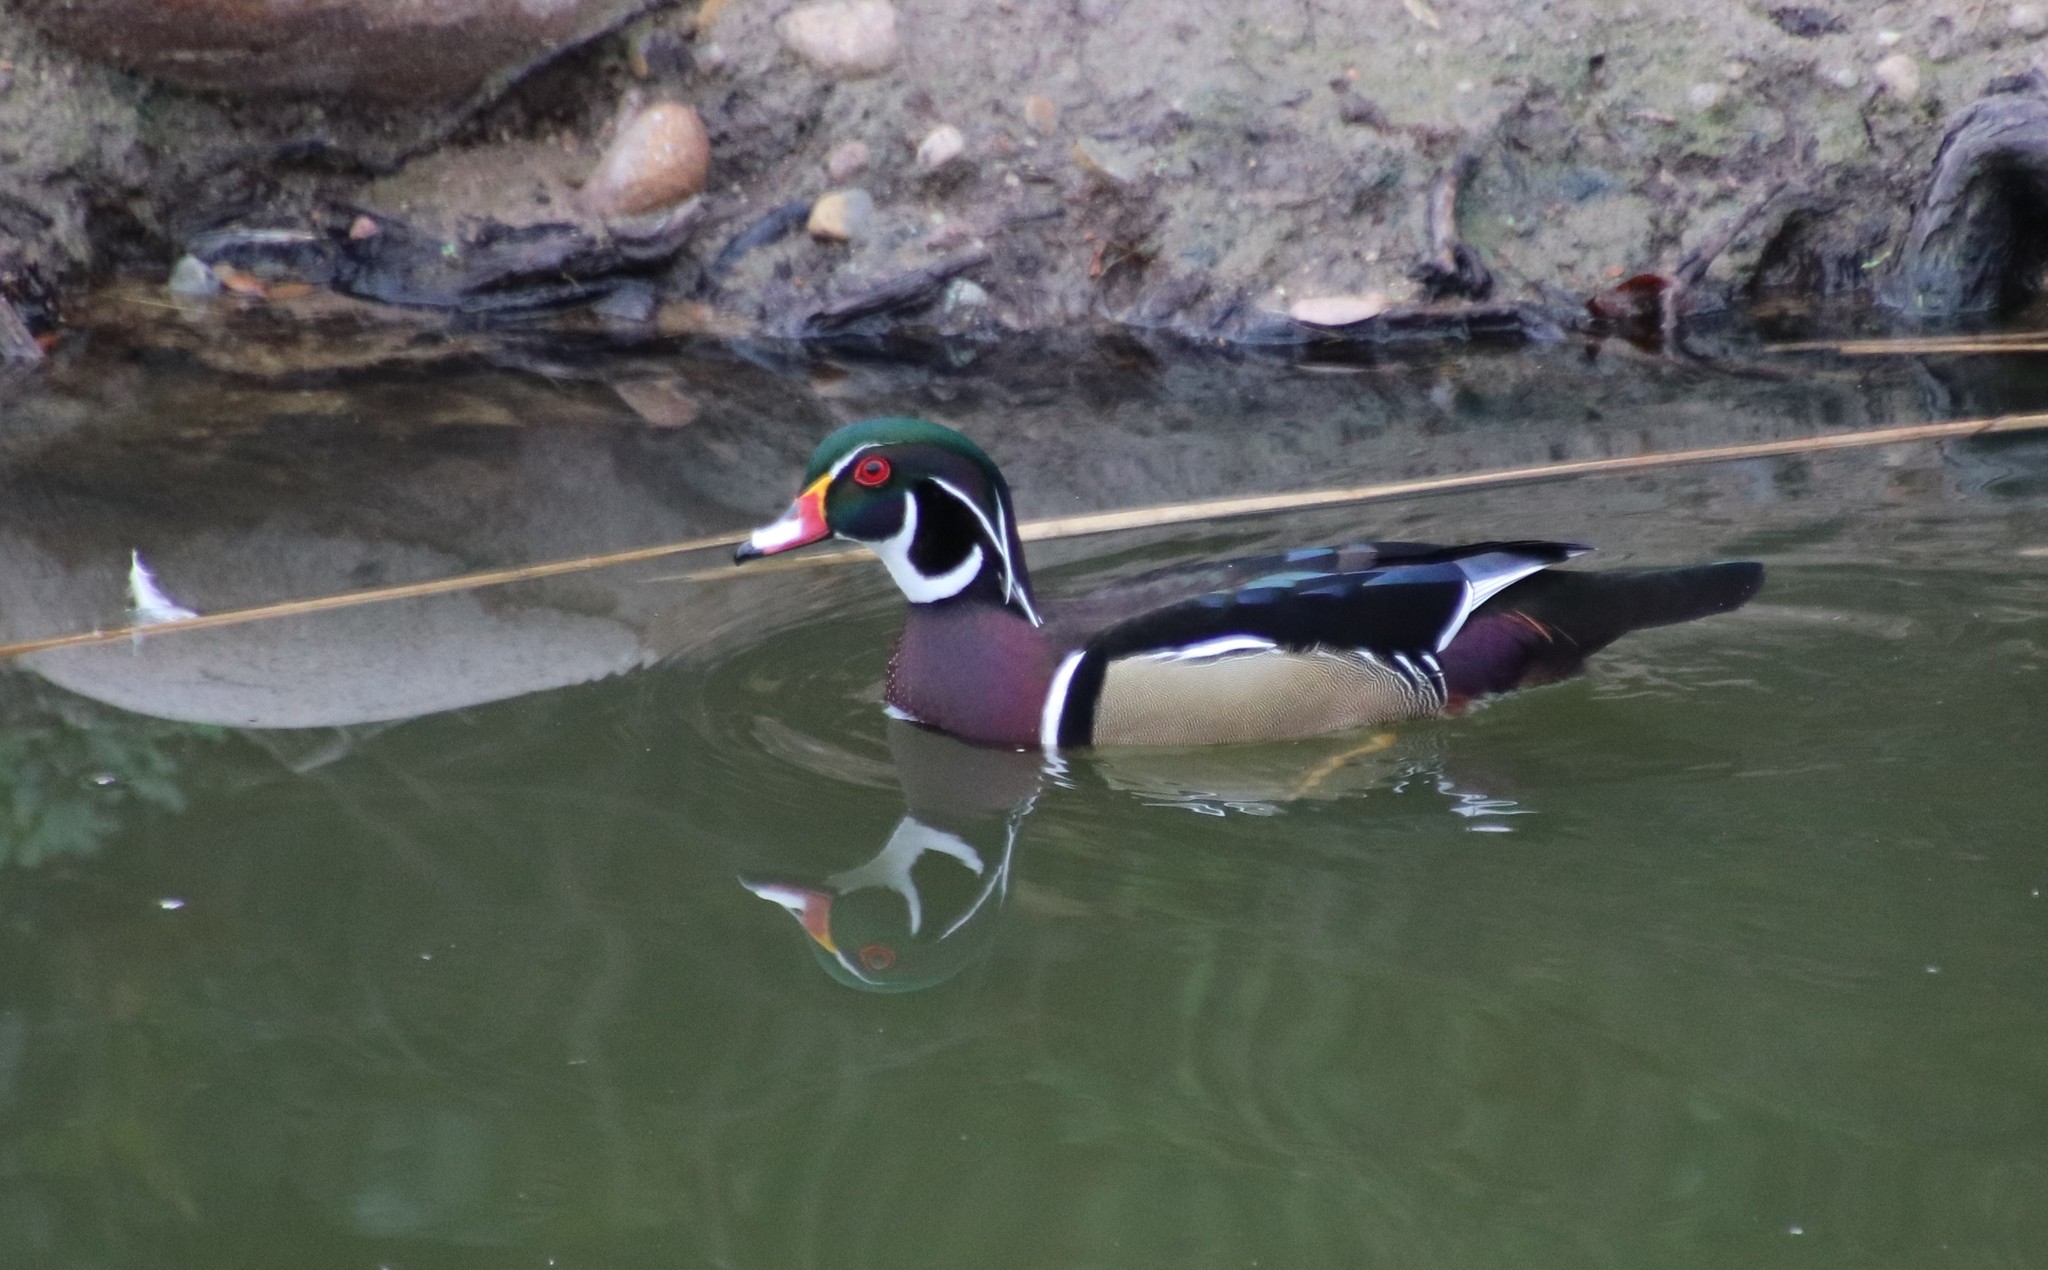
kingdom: Animalia
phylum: Chordata
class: Aves
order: Anseriformes
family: Anatidae
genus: Aix
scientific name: Aix sponsa
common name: Wood duck
